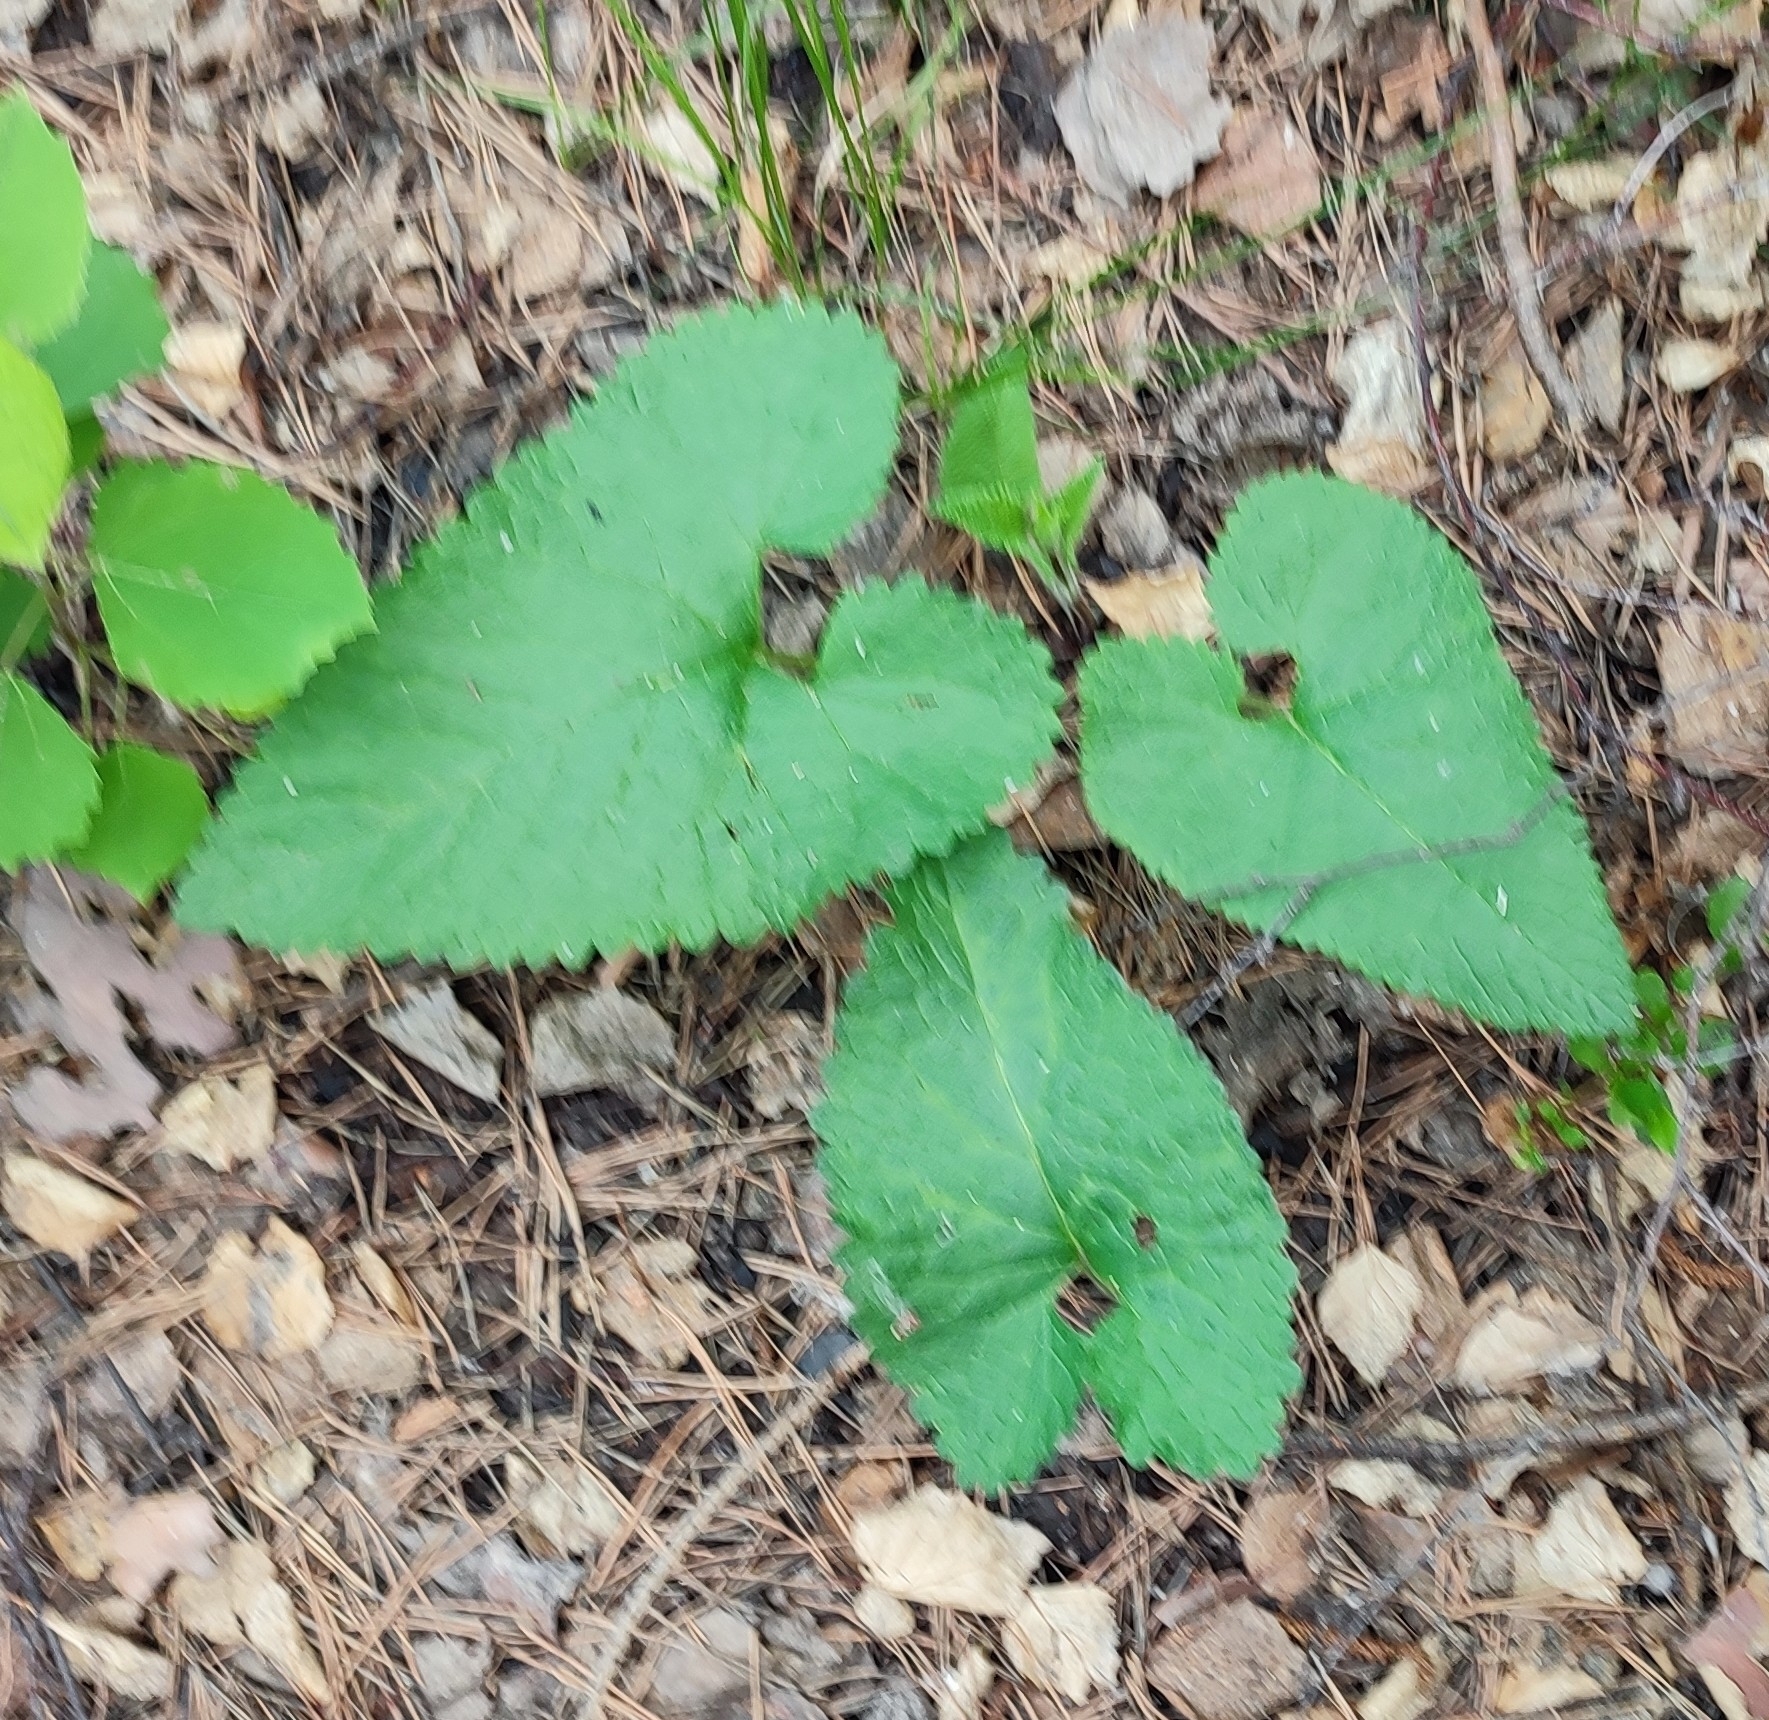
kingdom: Plantae
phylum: Tracheophyta
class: Magnoliopsida
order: Lamiales
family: Lamiaceae
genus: Phlomoides
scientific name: Phlomoides tuberosa
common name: Tuberous jerusalem sage
